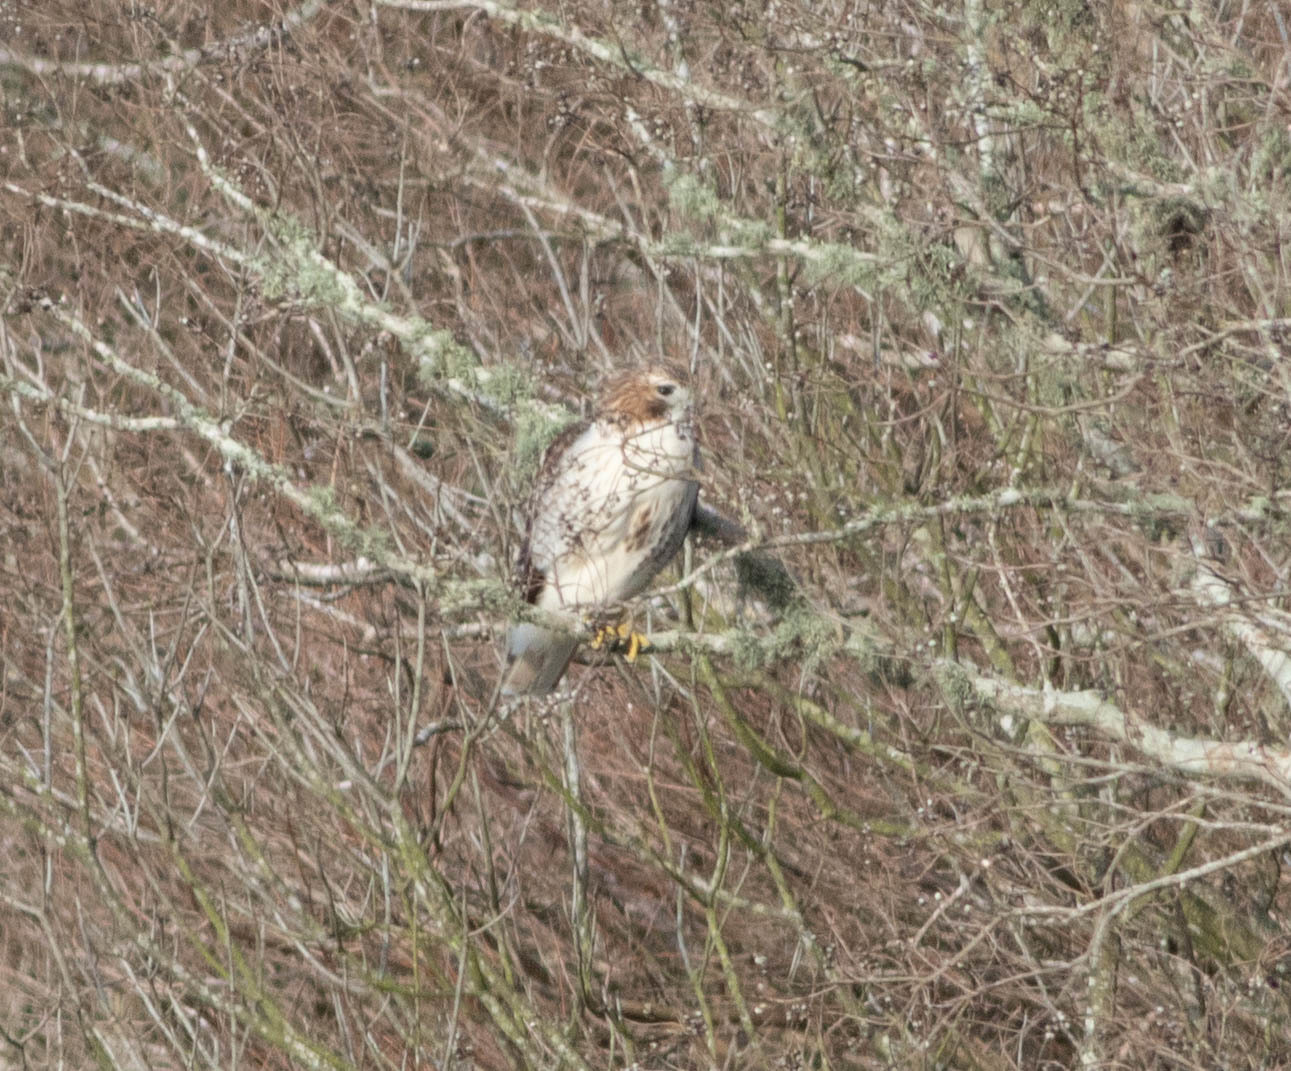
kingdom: Animalia
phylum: Chordata
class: Aves
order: Accipitriformes
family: Accipitridae
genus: Buteo
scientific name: Buteo jamaicensis
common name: Red-tailed hawk
